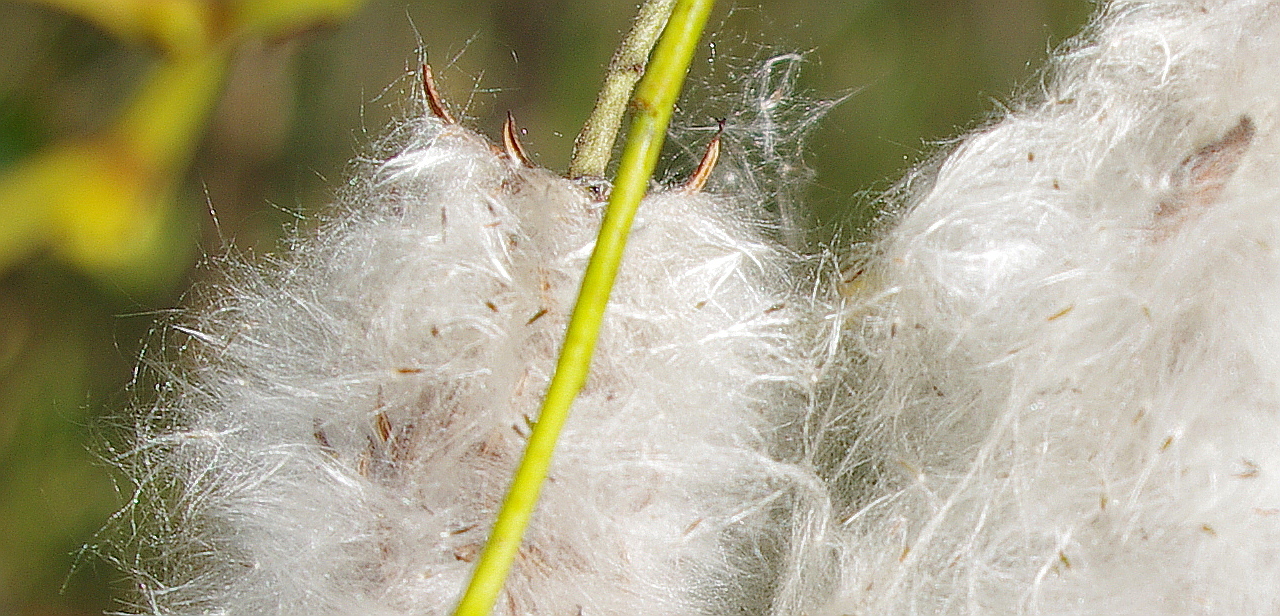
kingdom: Plantae
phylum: Tracheophyta
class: Magnoliopsida
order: Malpighiales
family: Salicaceae
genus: Salix
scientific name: Salix pentandra
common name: Bay willow
